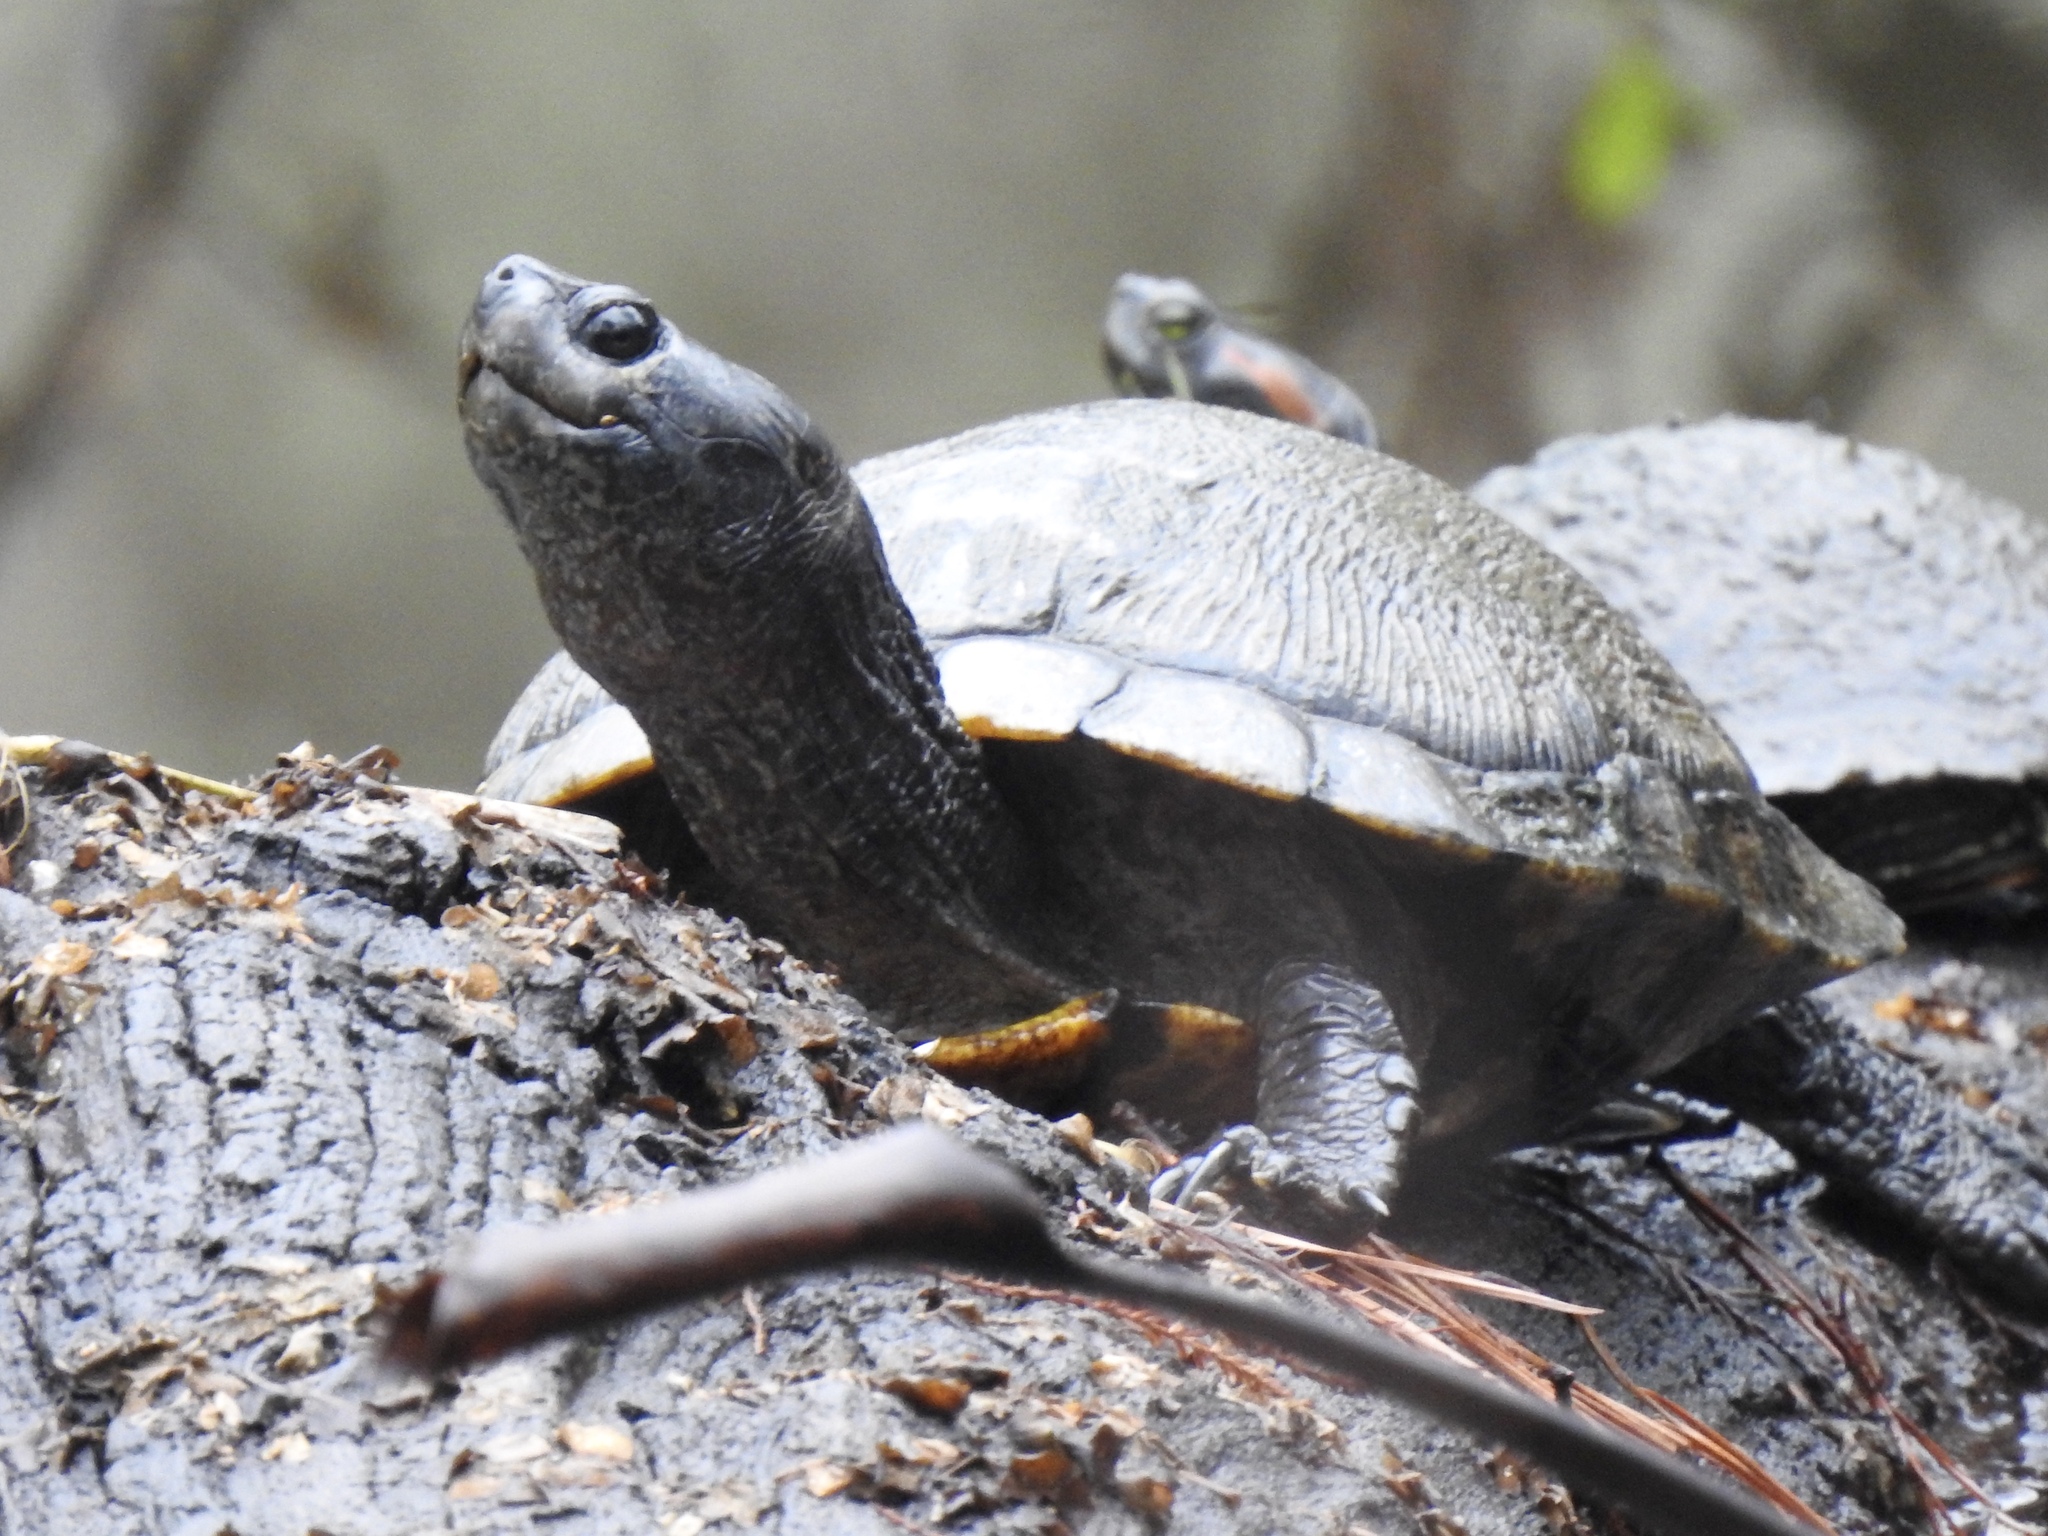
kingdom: Animalia
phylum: Chordata
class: Testudines
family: Emydidae
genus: Trachemys
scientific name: Trachemys scripta
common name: Slider
